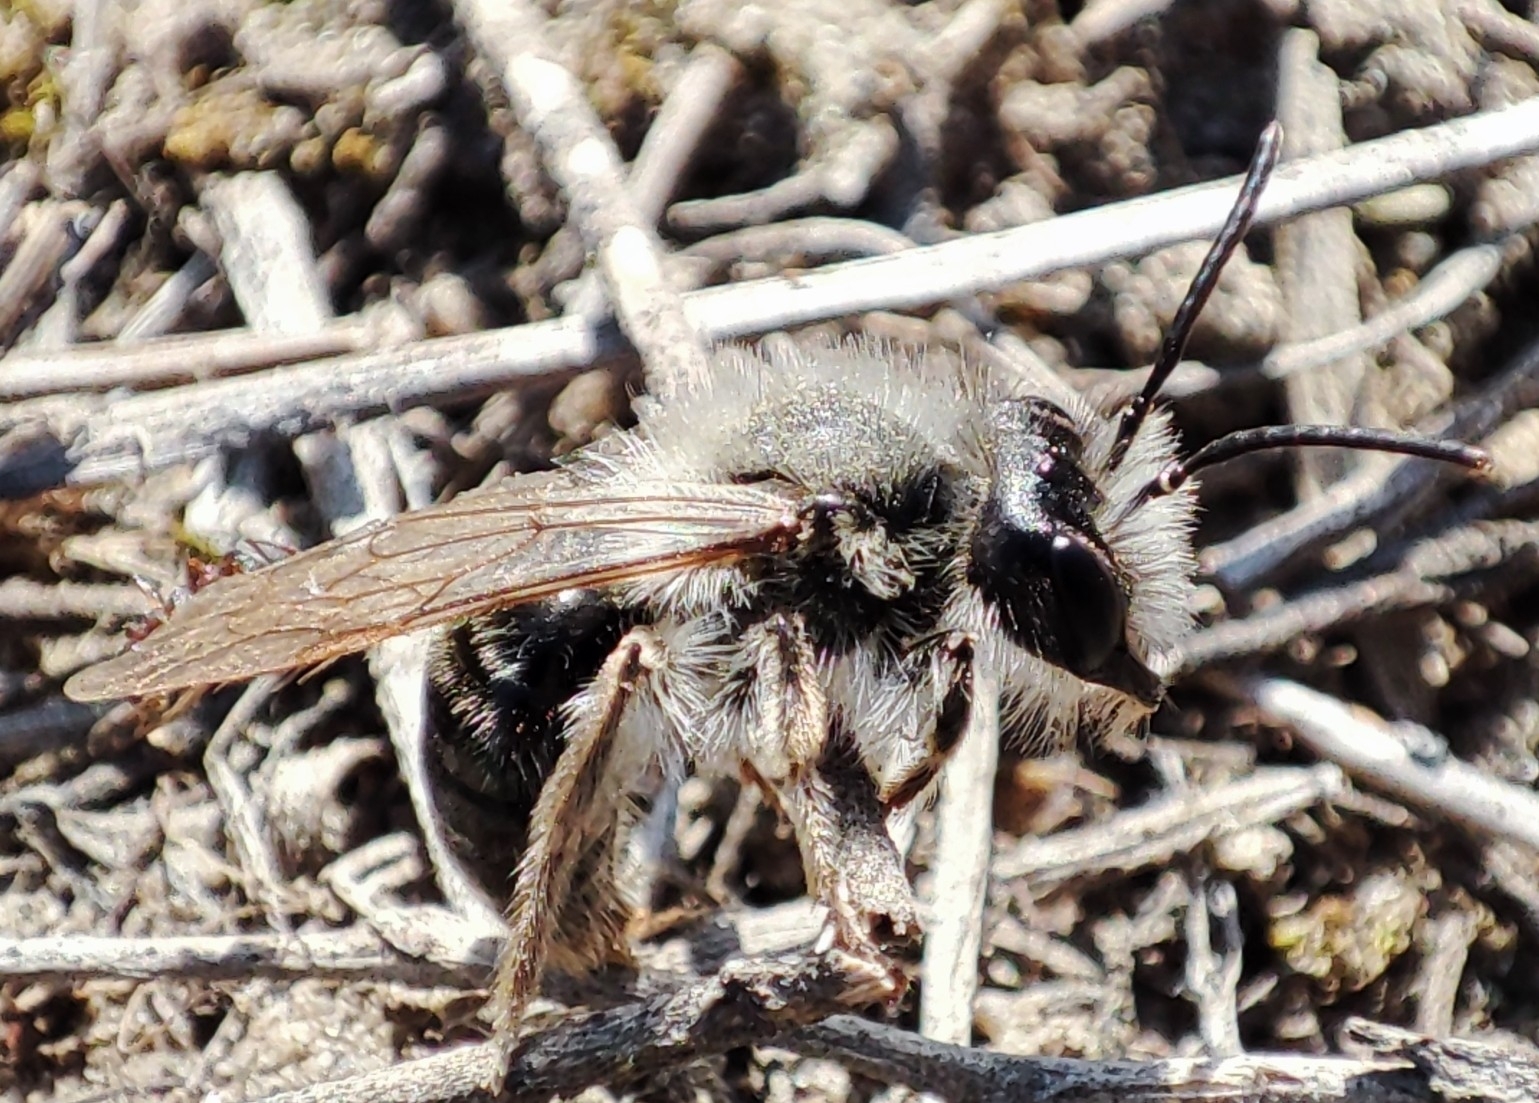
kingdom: Animalia
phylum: Arthropoda
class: Insecta
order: Hymenoptera
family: Andrenidae
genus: Andrena
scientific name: Andrena vaga
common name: Grey-backed mining bee
